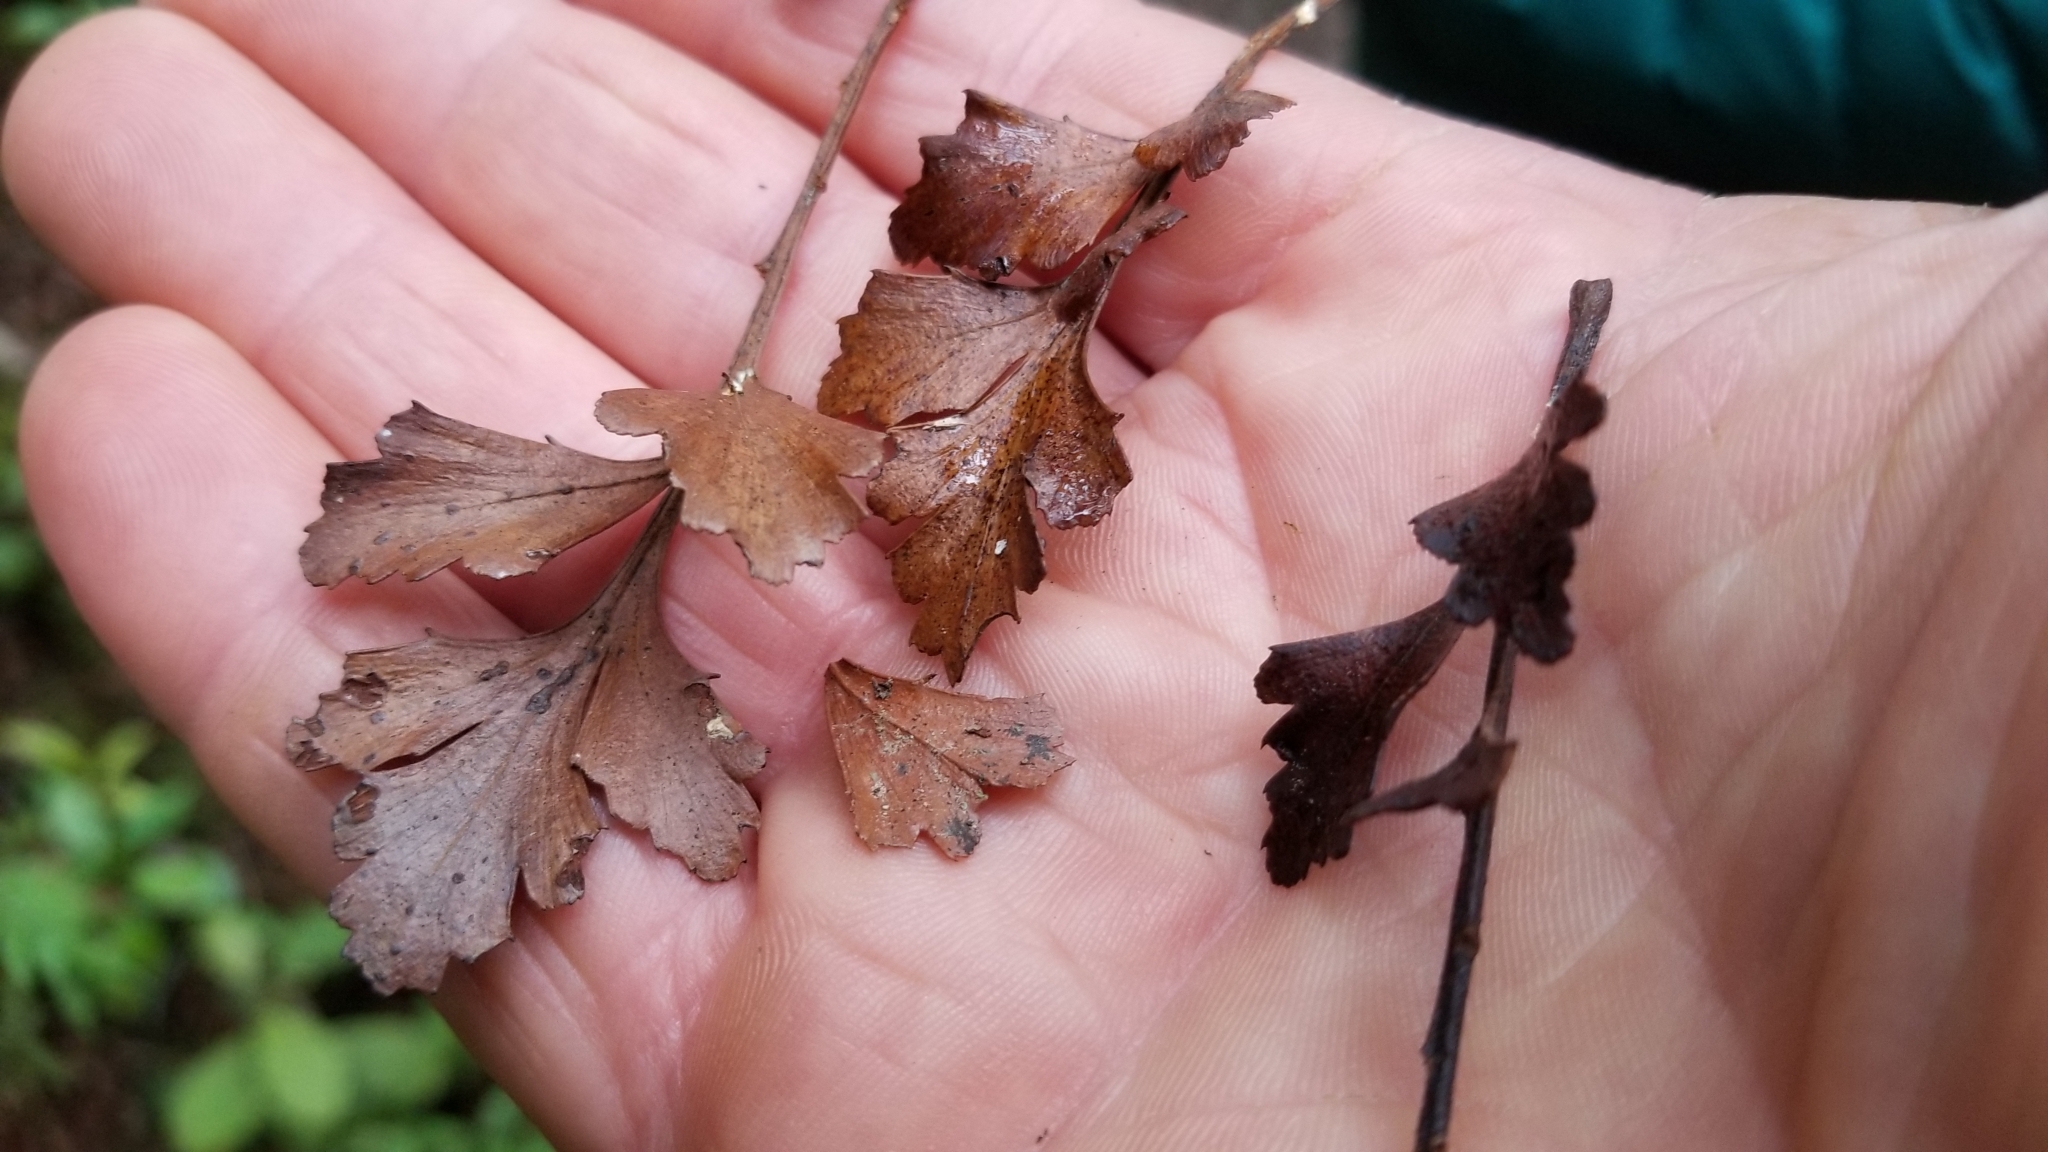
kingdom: Plantae
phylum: Tracheophyta
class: Pinopsida
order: Pinales
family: Phyllocladaceae
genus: Phyllocladus
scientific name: Phyllocladus trichomanoides
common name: Celery pine
